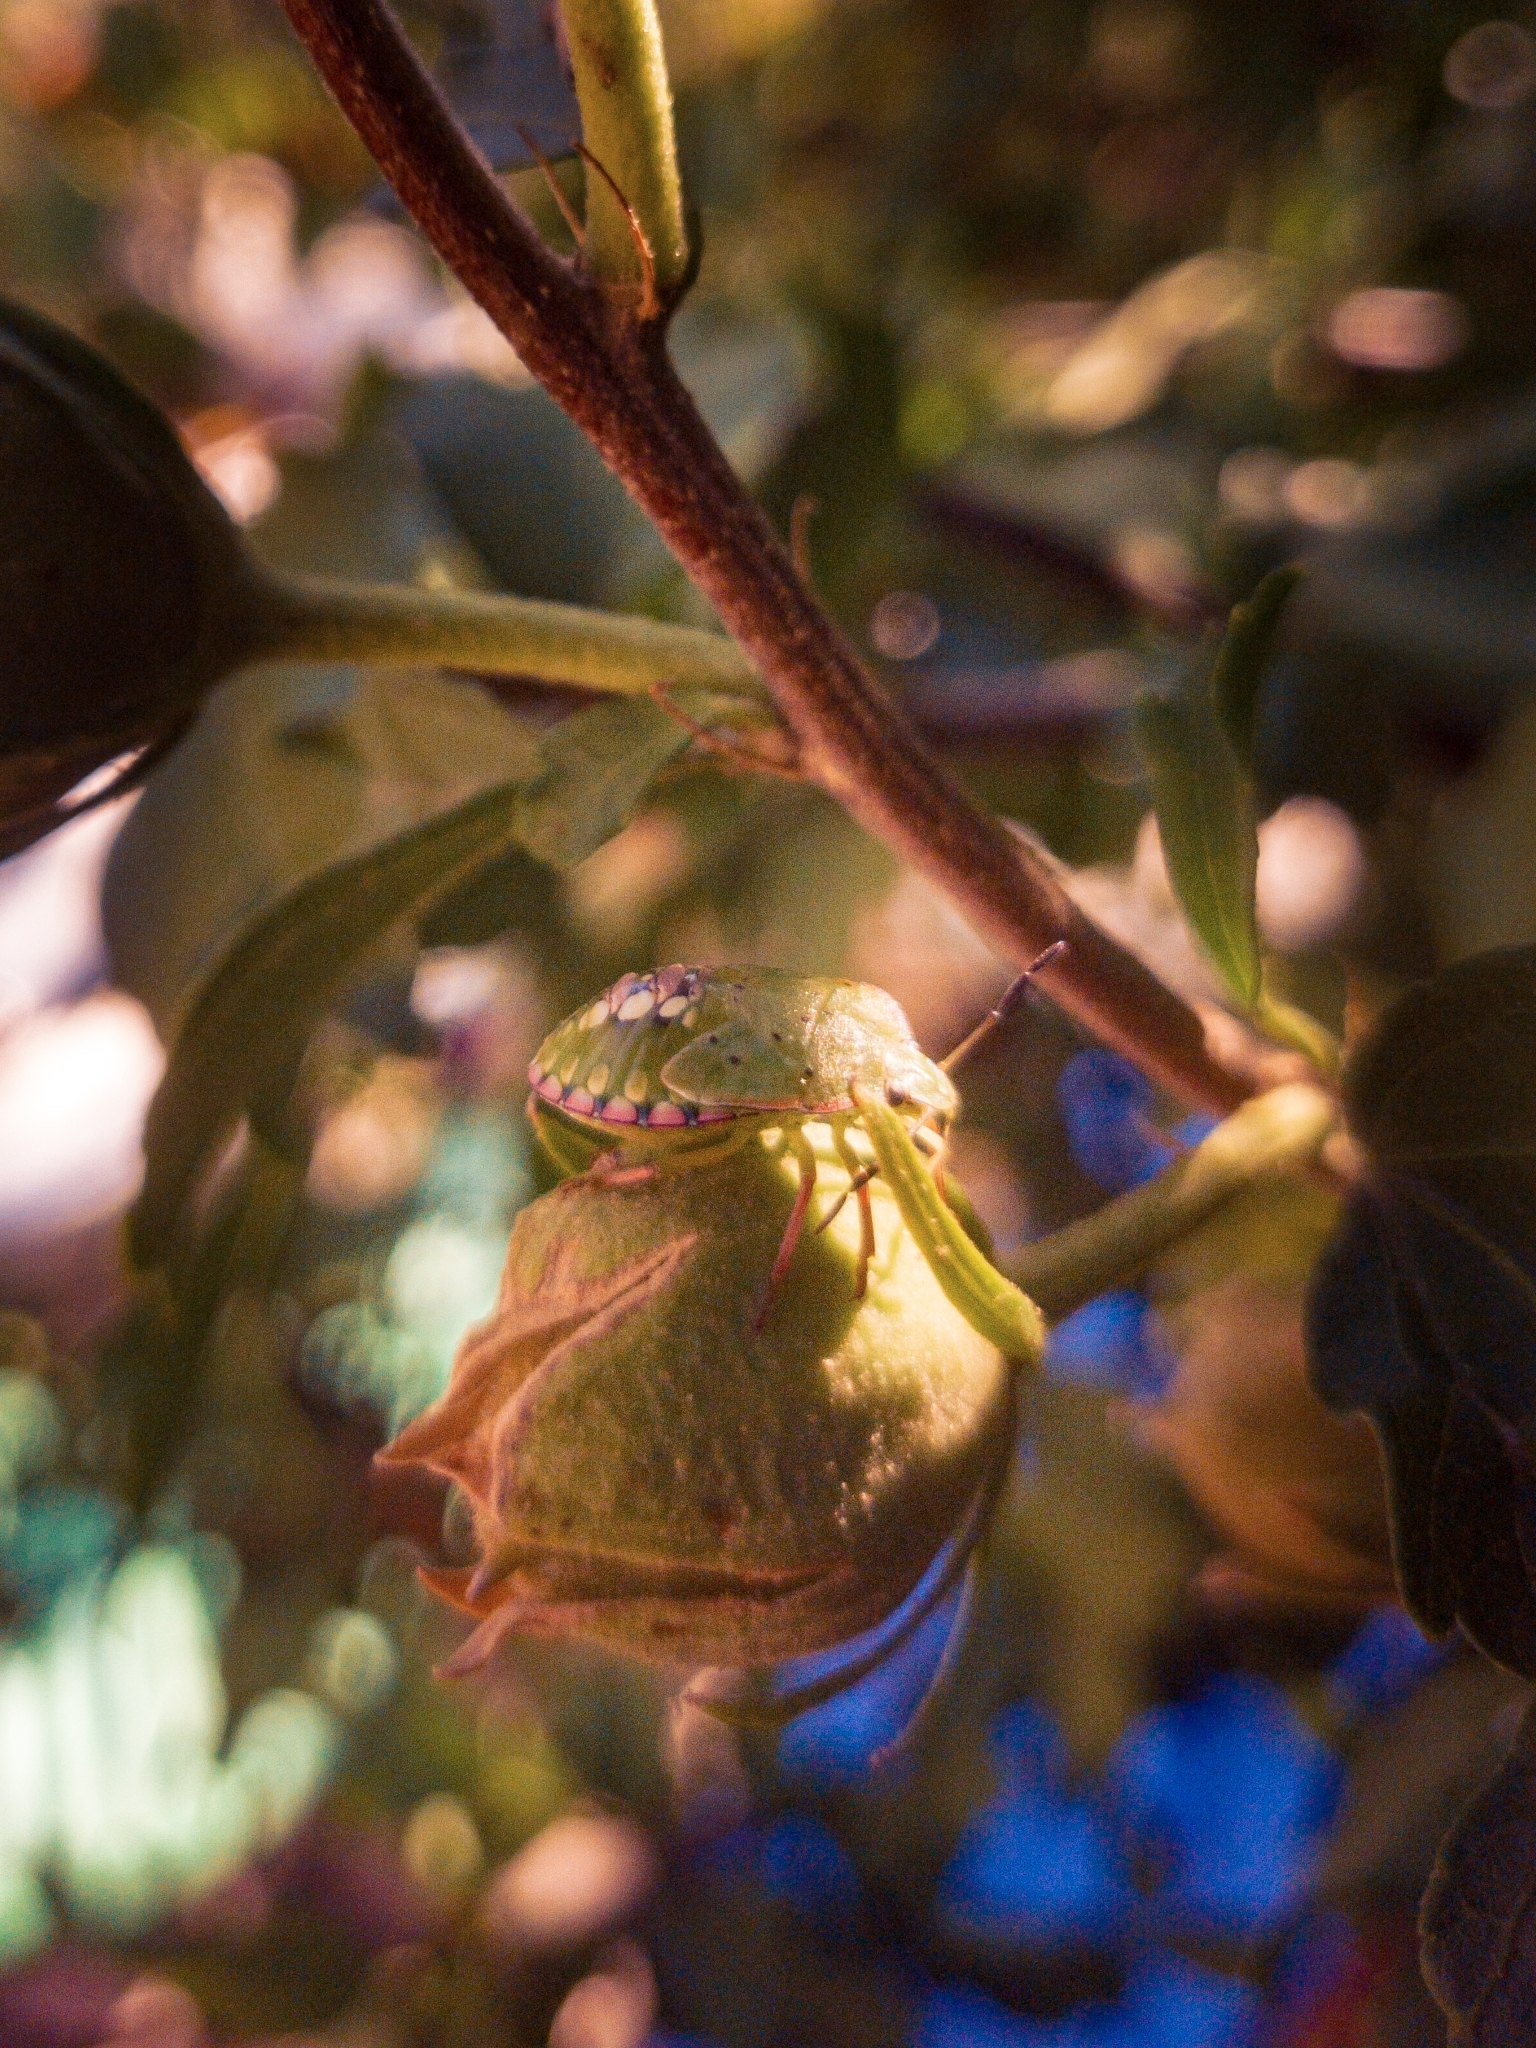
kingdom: Animalia
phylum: Arthropoda
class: Insecta
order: Hemiptera
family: Pentatomidae
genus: Nezara
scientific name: Nezara viridula
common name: Southern green stink bug
